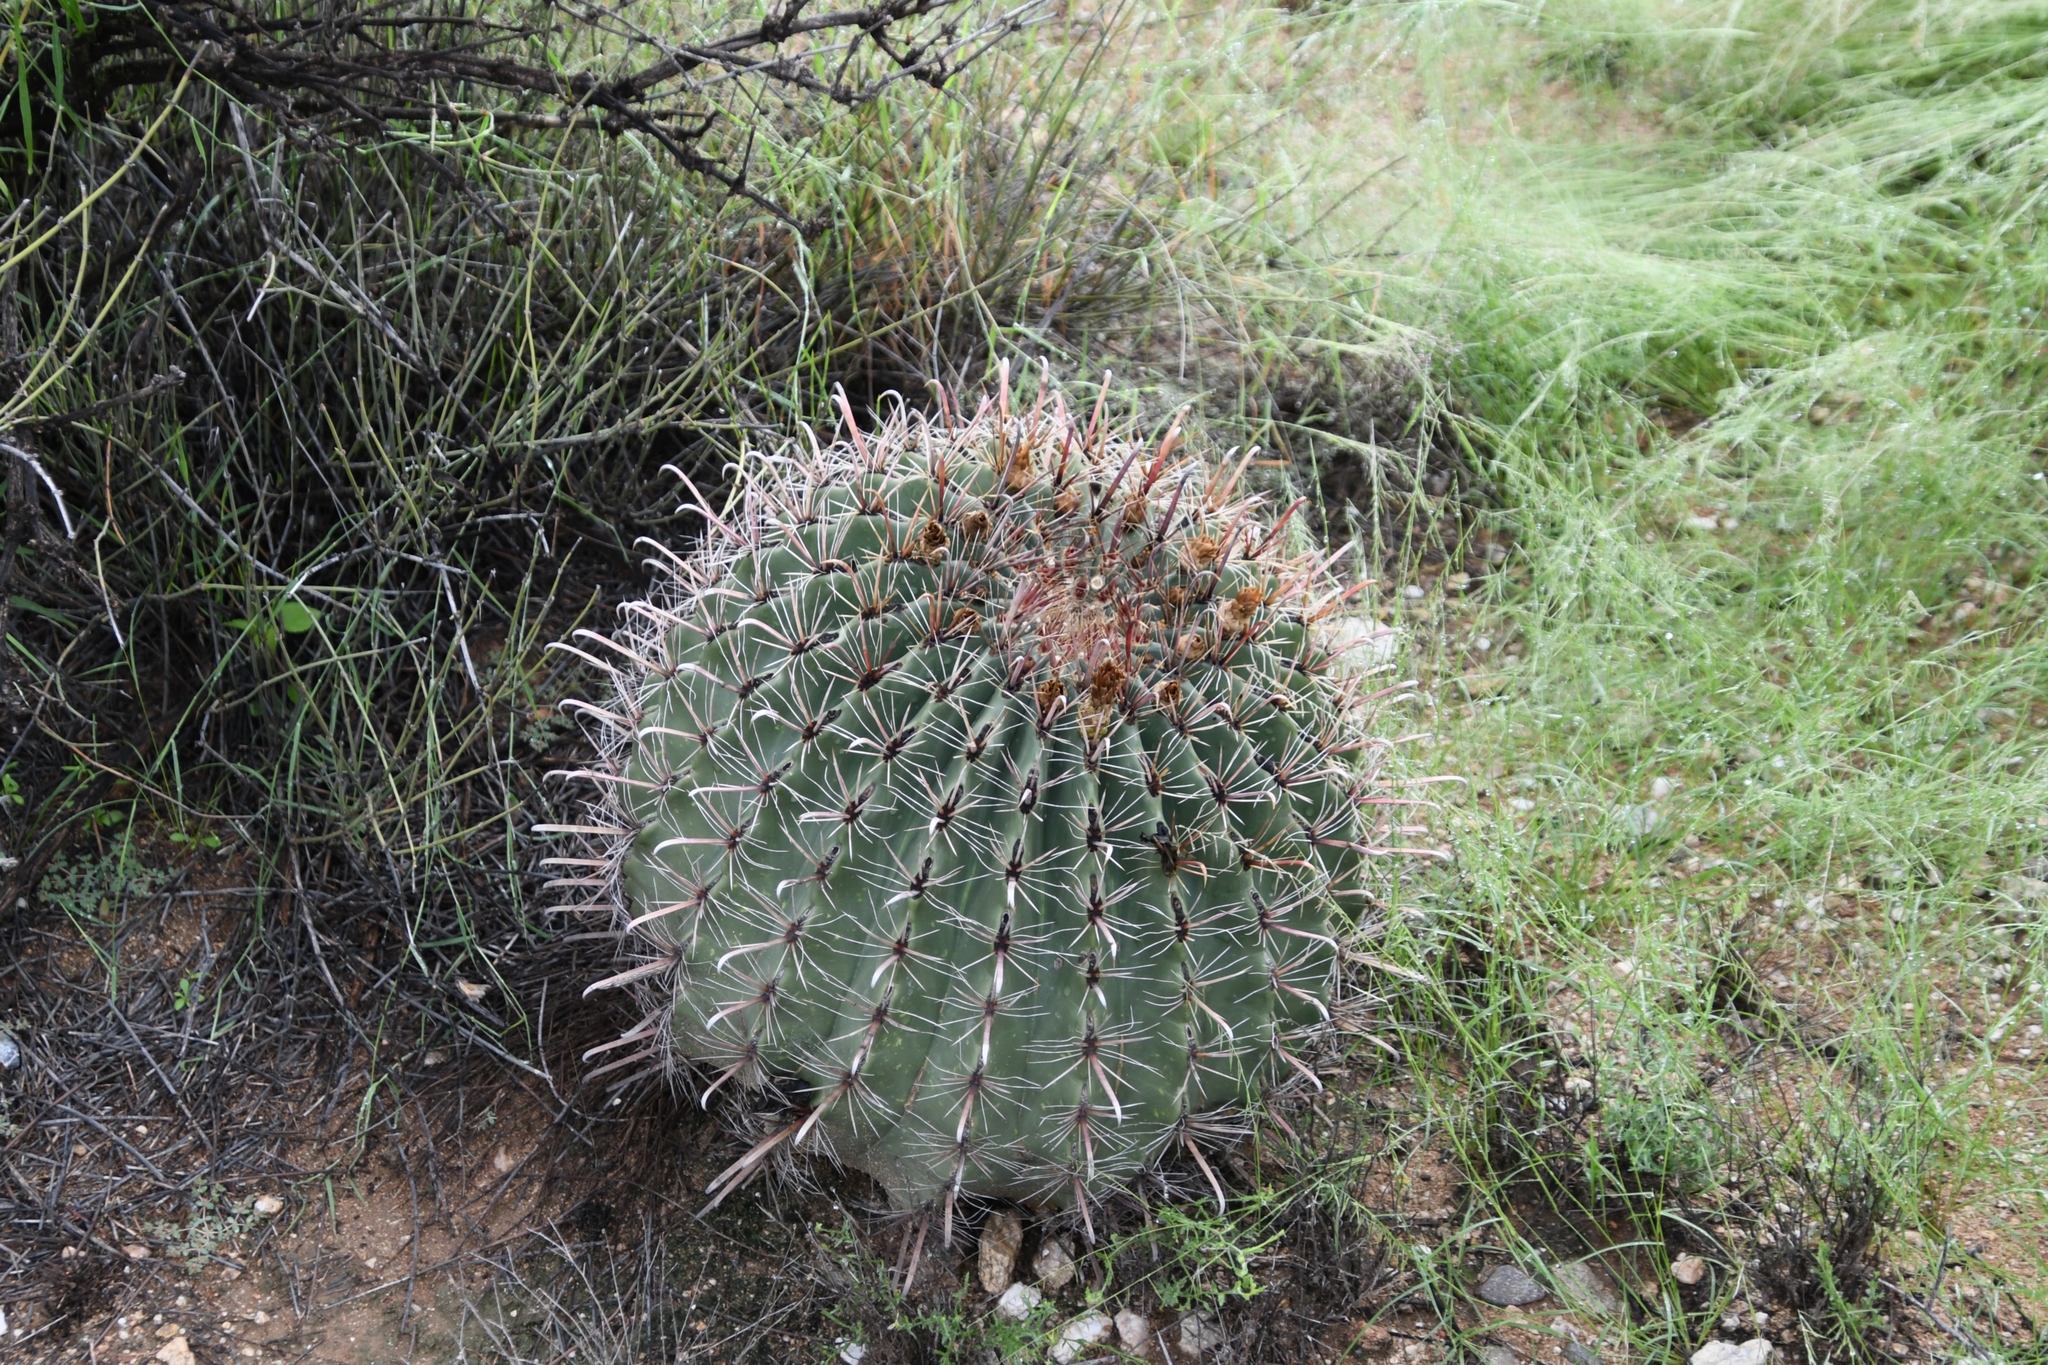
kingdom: Plantae
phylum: Tracheophyta
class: Magnoliopsida
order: Caryophyllales
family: Cactaceae
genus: Ferocactus
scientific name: Ferocactus wislizeni
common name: Candy barrel cactus
